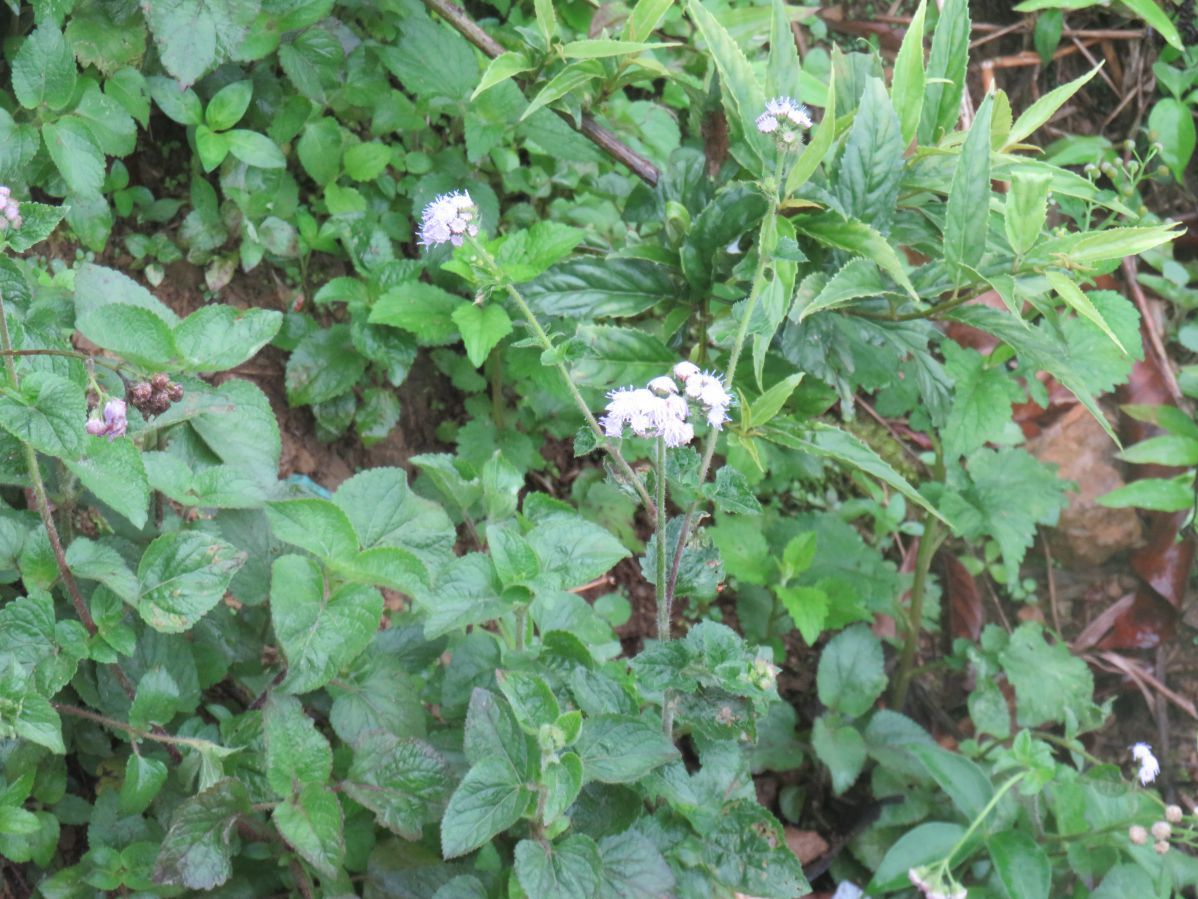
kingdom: Plantae
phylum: Tracheophyta
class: Magnoliopsida
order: Asterales
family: Asteraceae
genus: Ageratum
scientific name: Ageratum conyzoides
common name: Tropical whiteweed
